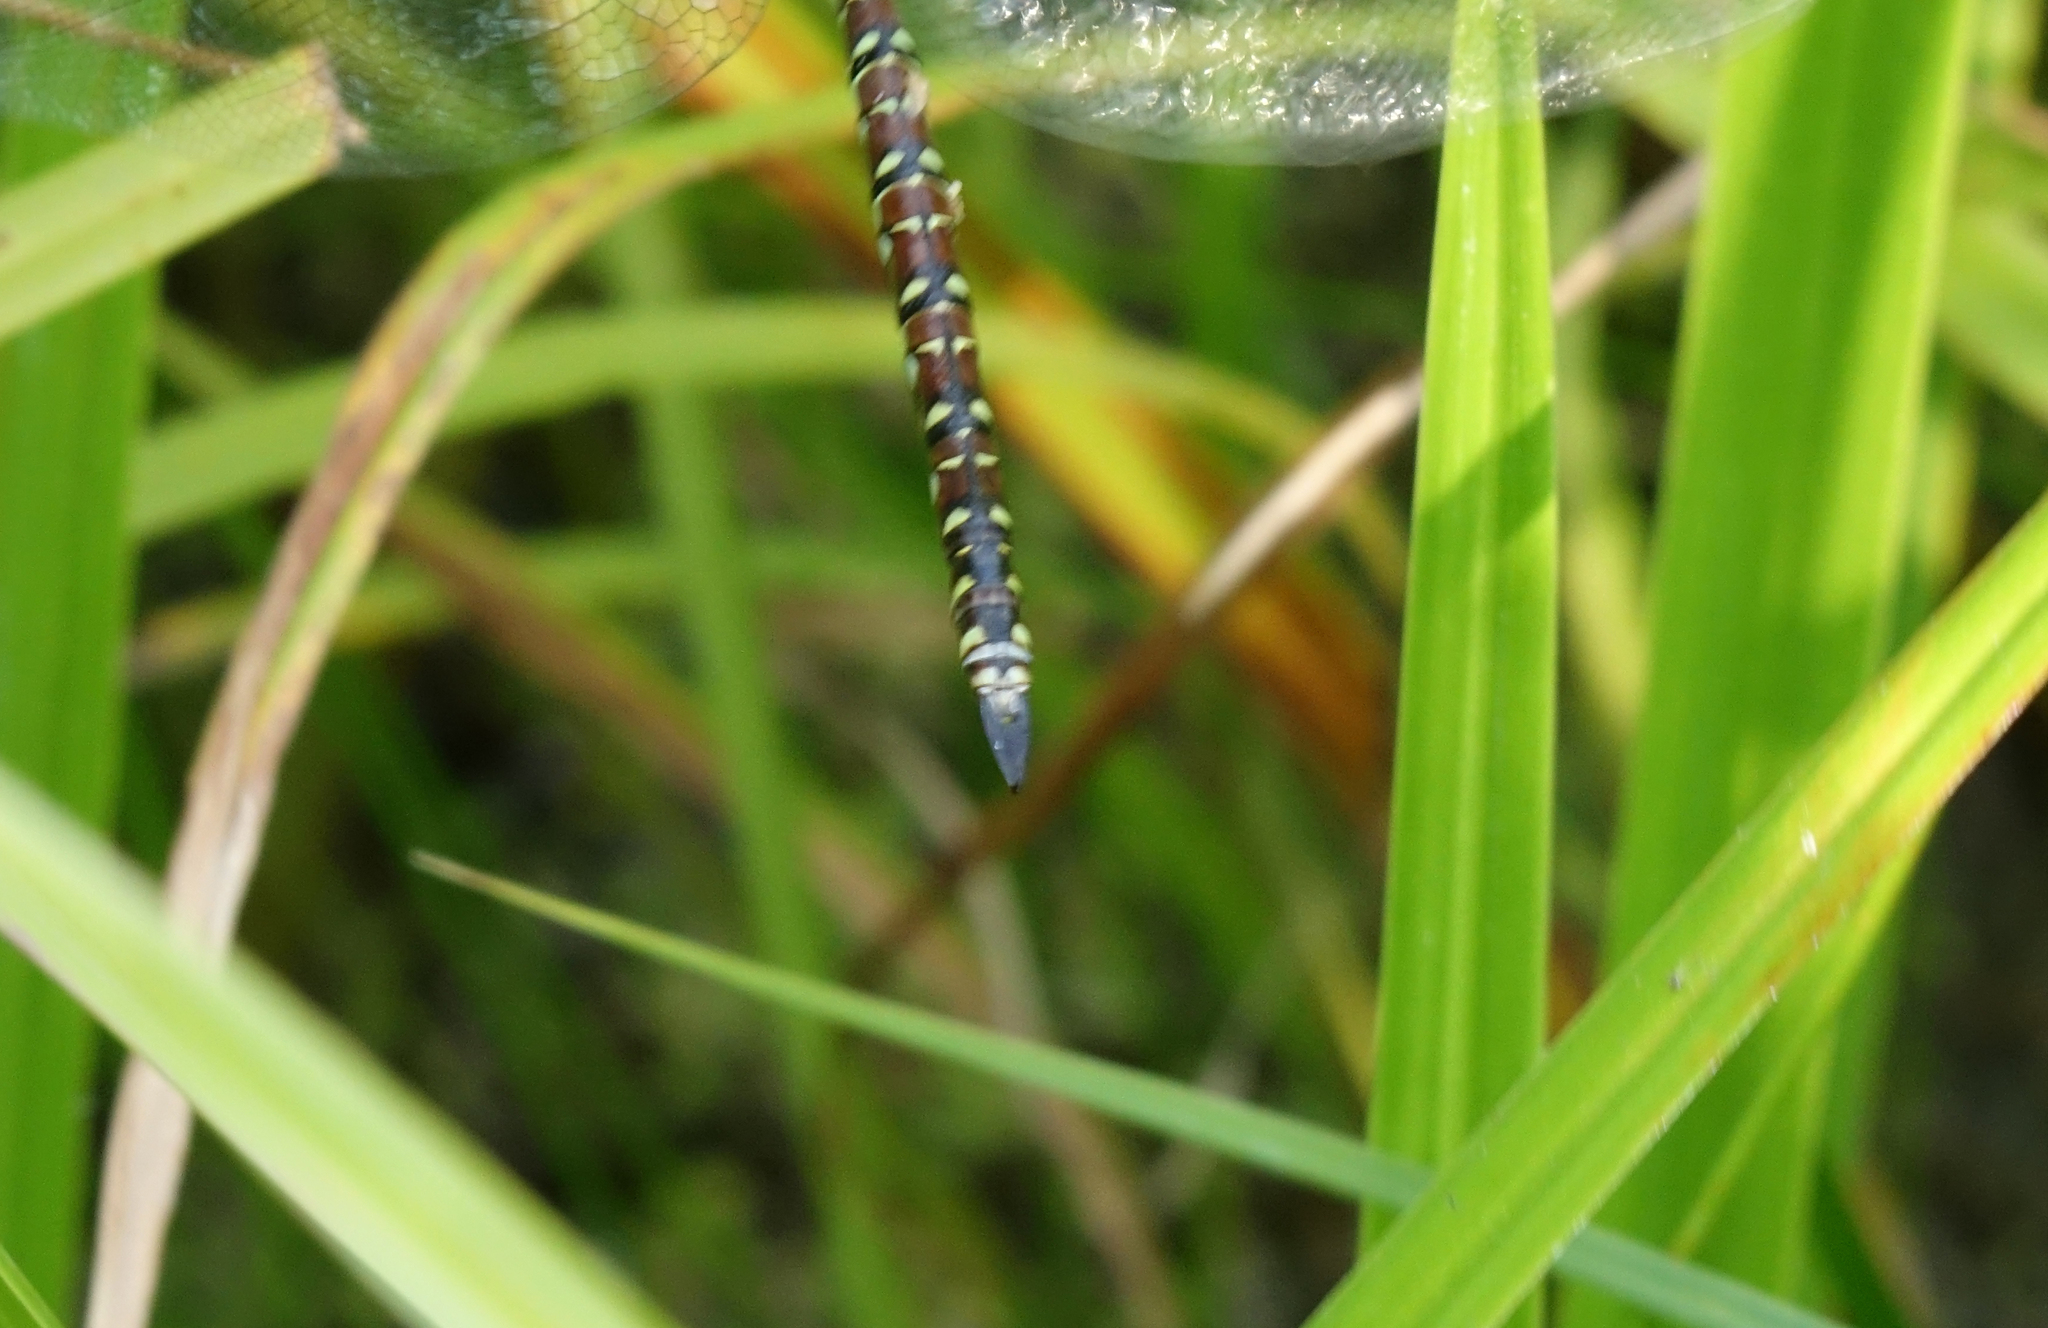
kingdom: Animalia
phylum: Arthropoda
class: Insecta
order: Odonata
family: Aeshnidae
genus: Aeshna
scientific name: Aeshna juncea
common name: Moorland hawker
